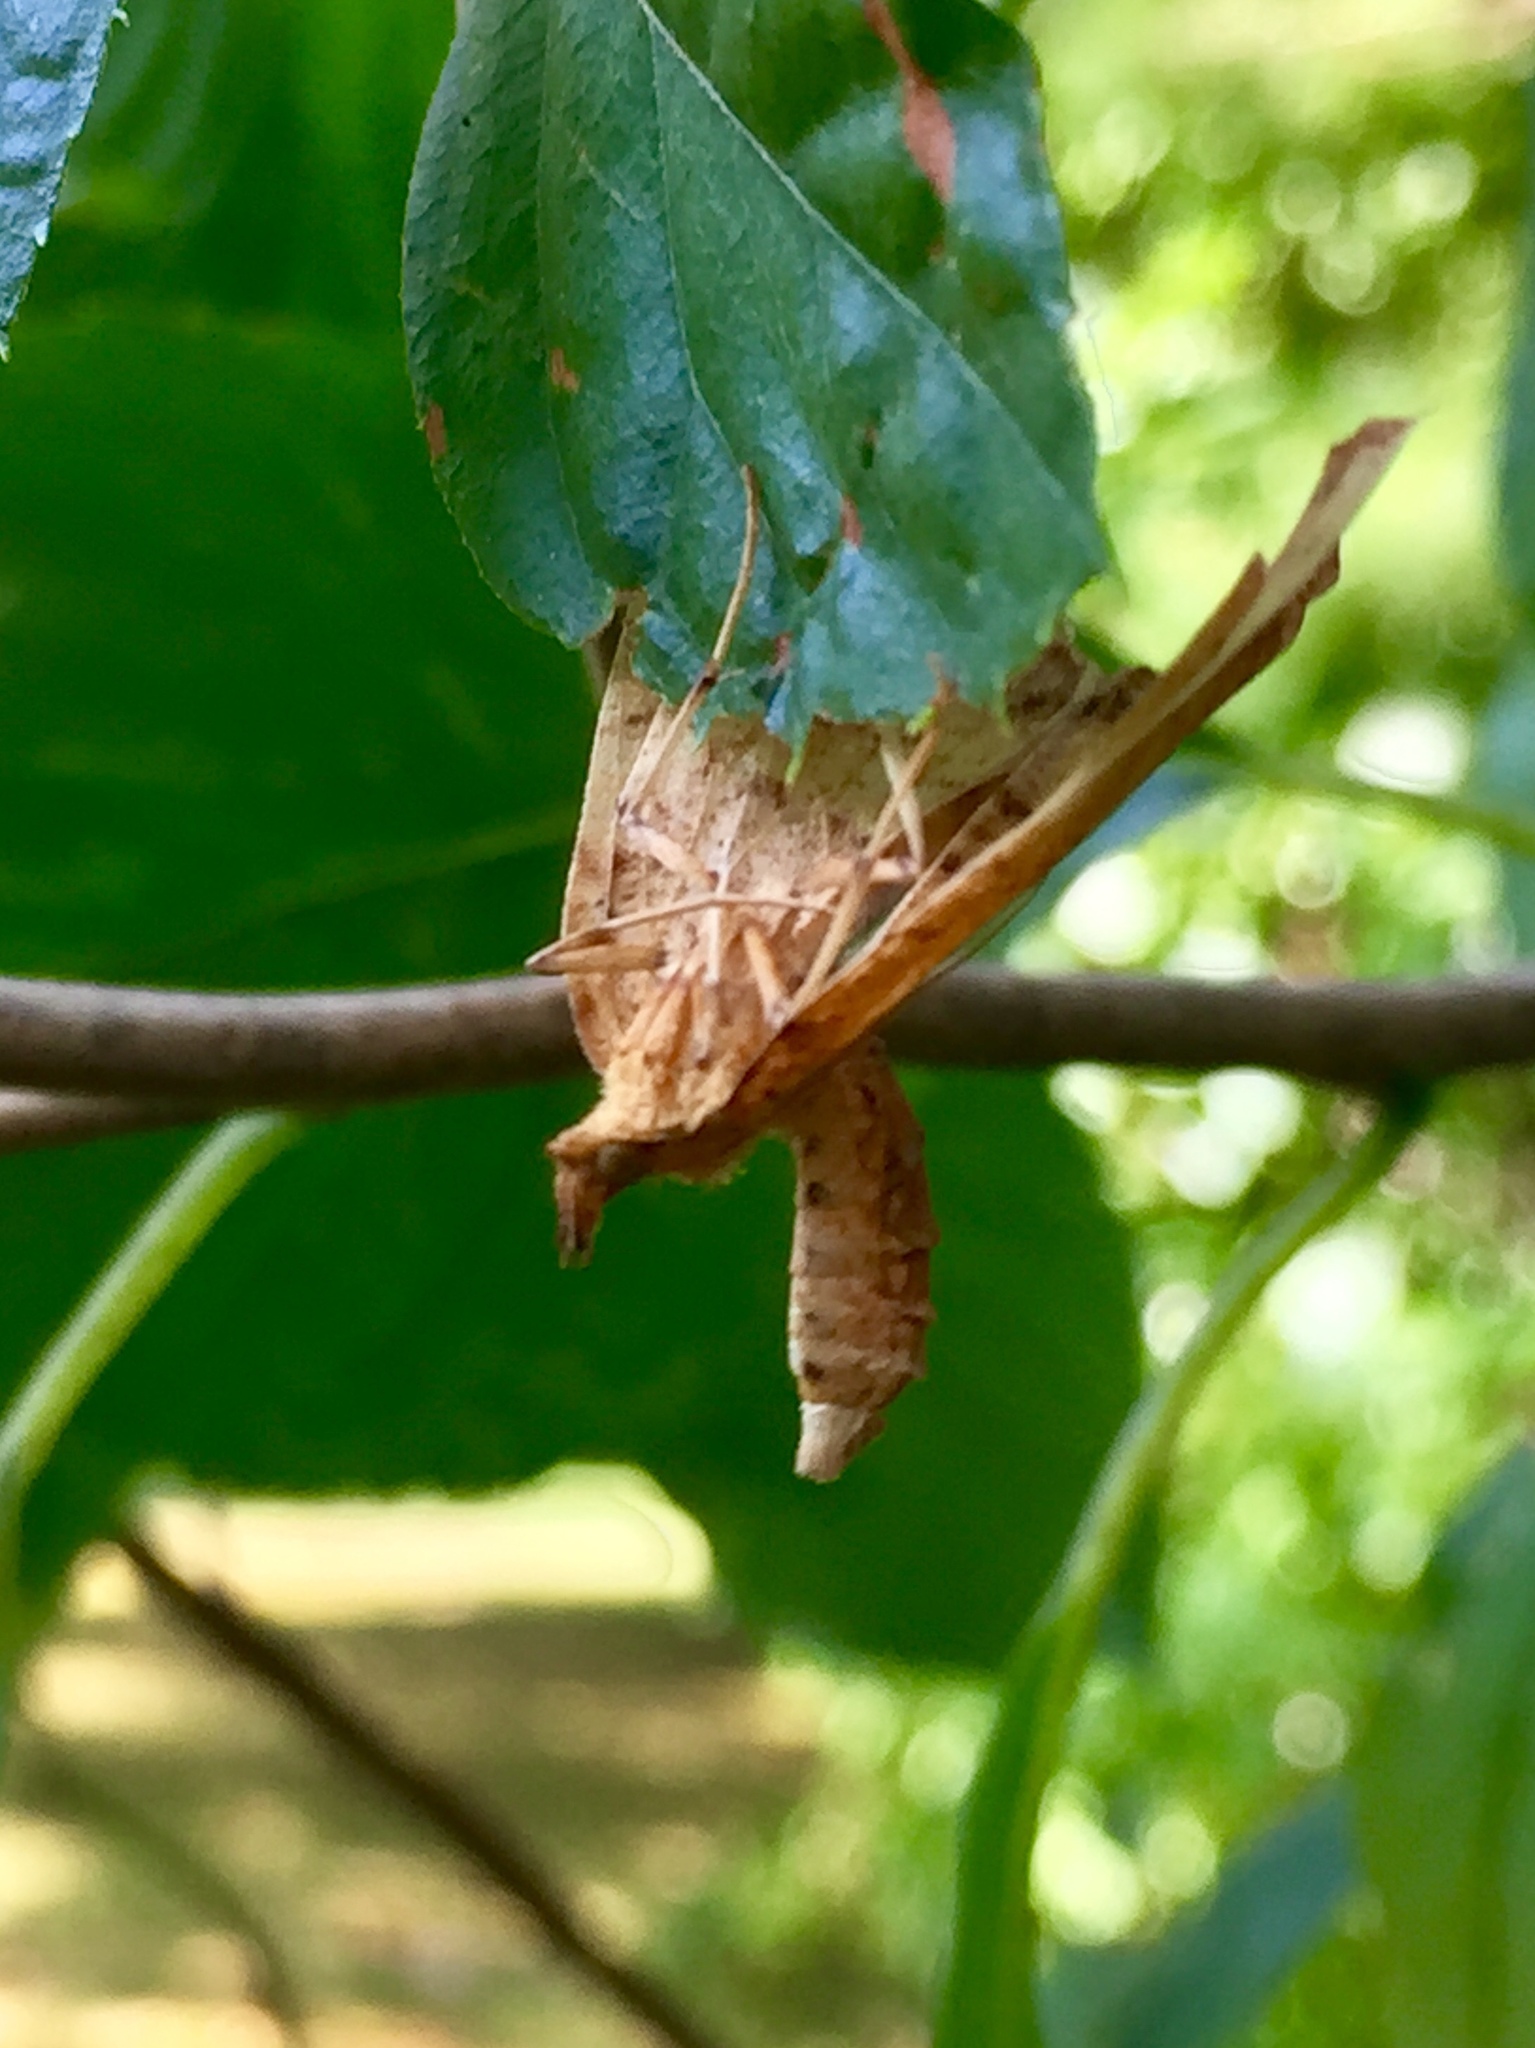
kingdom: Animalia
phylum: Arthropoda
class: Insecta
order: Lepidoptera
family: Geometridae
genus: Eulithis
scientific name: Eulithis
